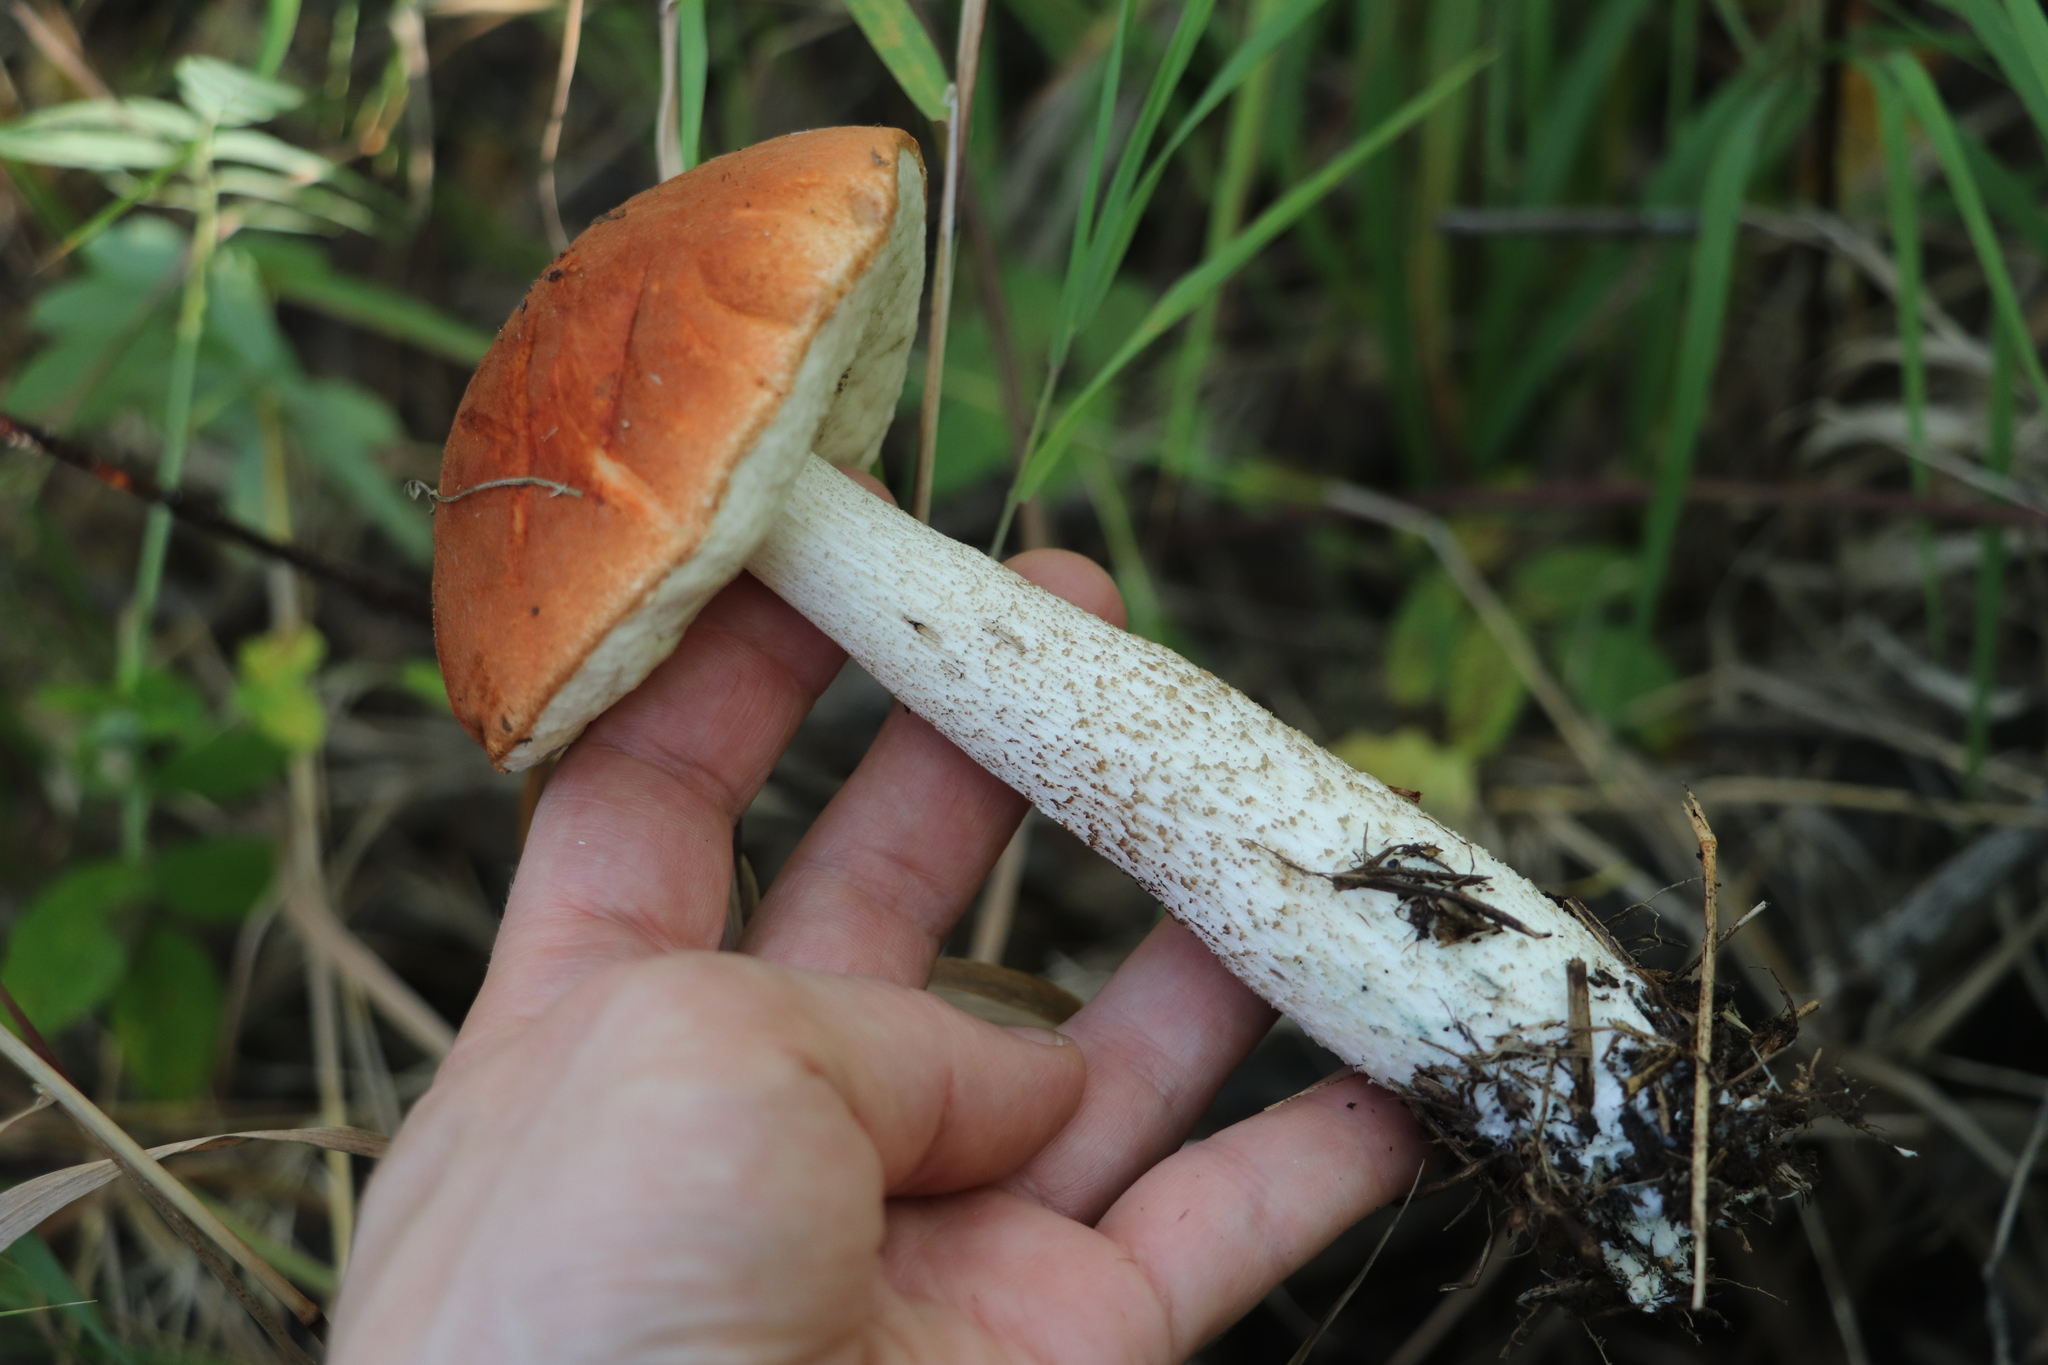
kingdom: Fungi
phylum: Basidiomycota
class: Agaricomycetes
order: Boletales
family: Boletaceae
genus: Leccinum
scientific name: Leccinum aurantiacum
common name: Orange bolete
